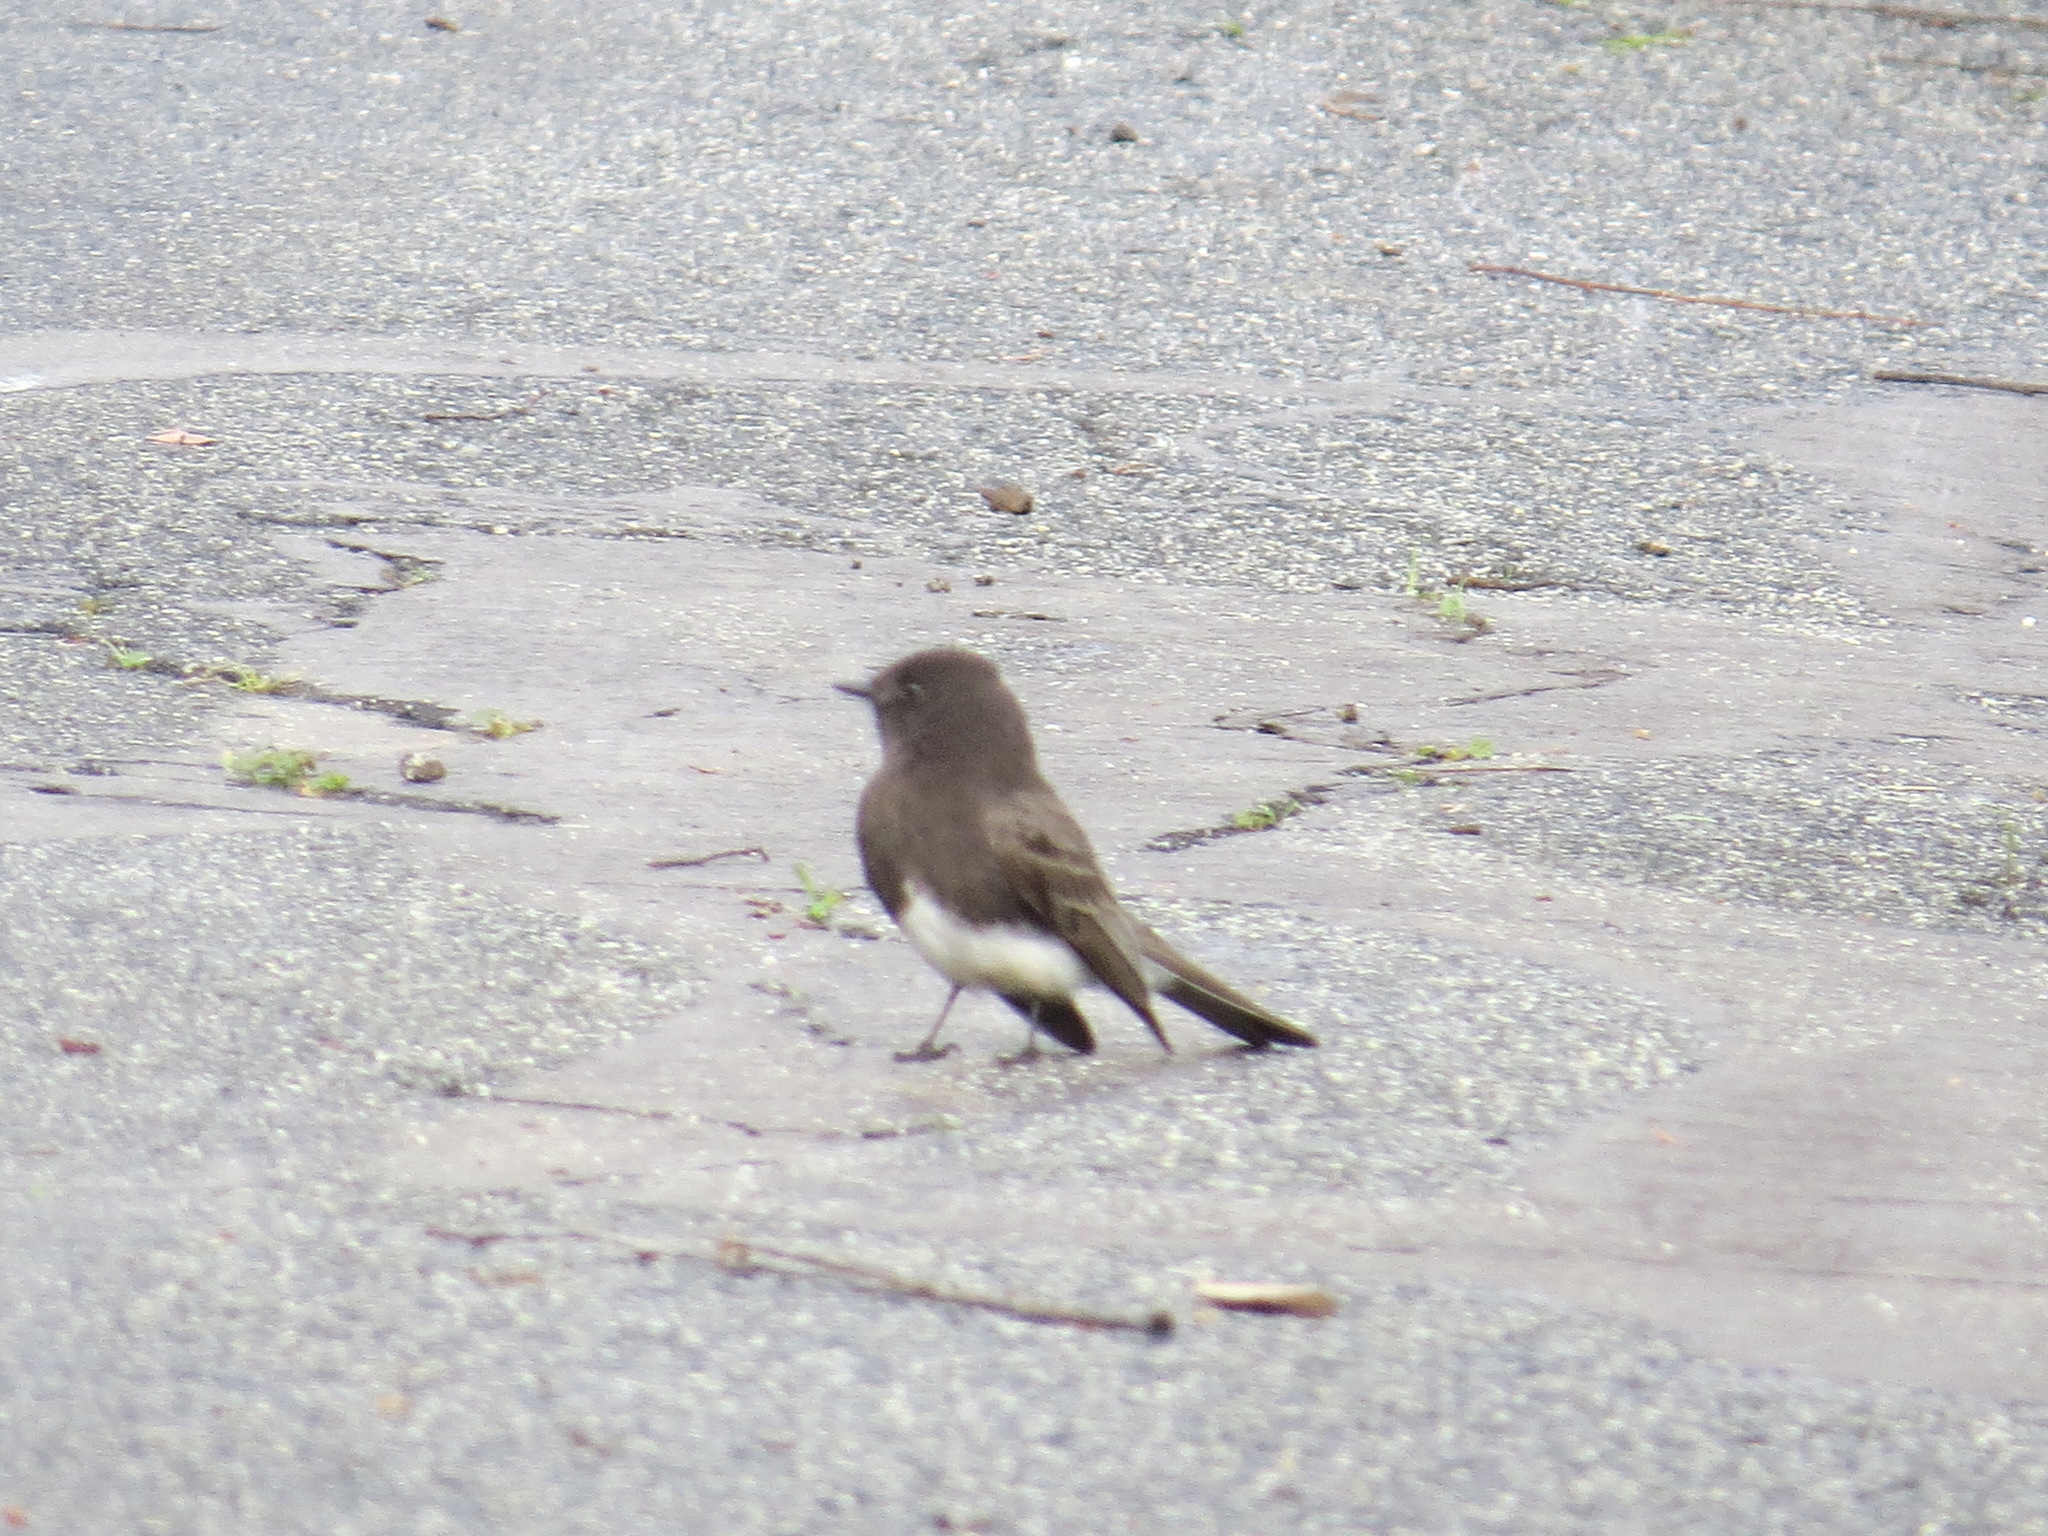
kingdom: Animalia
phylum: Chordata
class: Aves
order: Passeriformes
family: Tyrannidae
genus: Sayornis
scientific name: Sayornis nigricans
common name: Black phoebe
